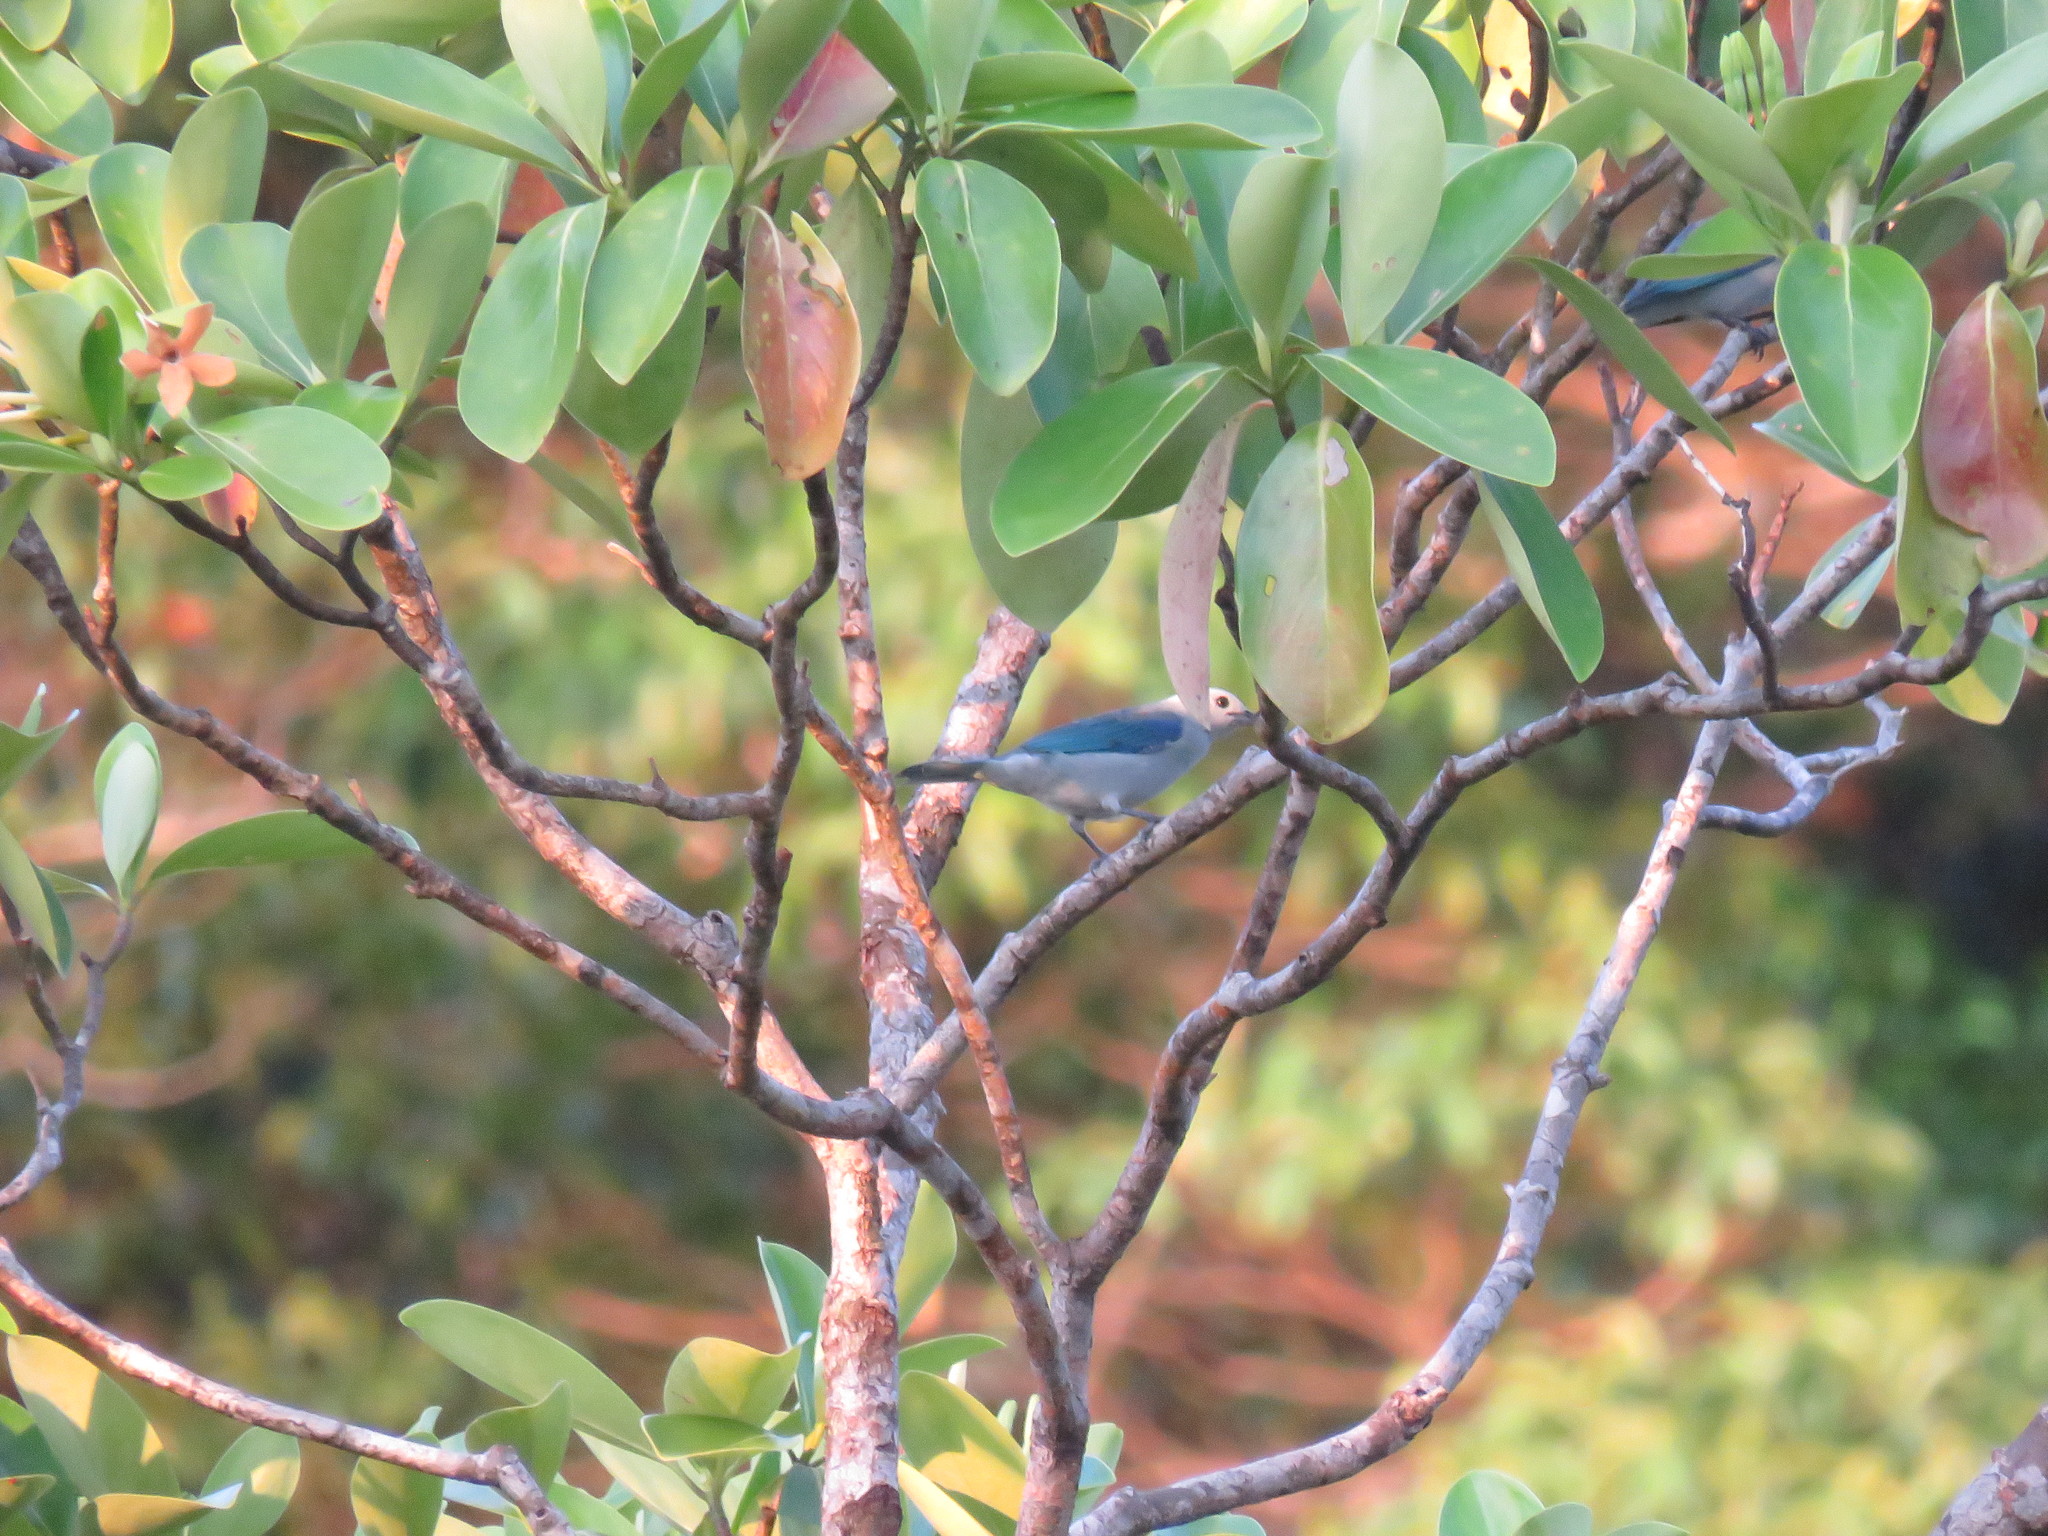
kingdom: Animalia
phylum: Chordata
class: Aves
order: Passeriformes
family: Thraupidae
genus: Thraupis
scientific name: Thraupis episcopus
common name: Blue-grey tanager
